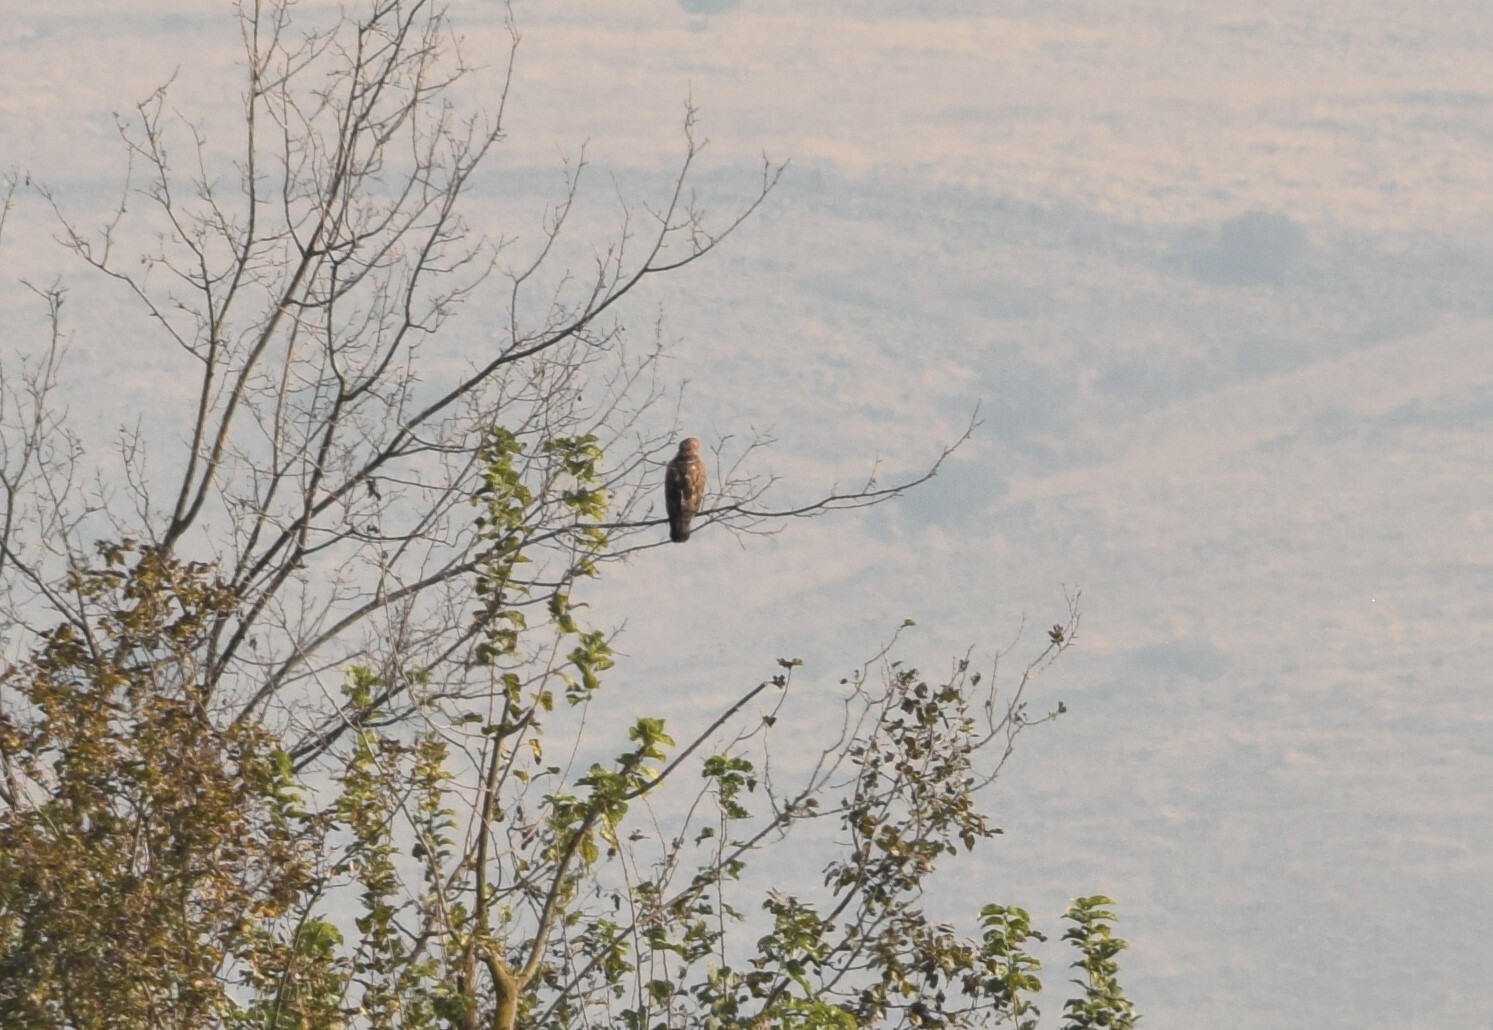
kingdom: Animalia
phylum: Chordata
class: Aves
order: Accipitriformes
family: Accipitridae
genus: Buteo
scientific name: Buteo buteo
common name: Common buzzard
